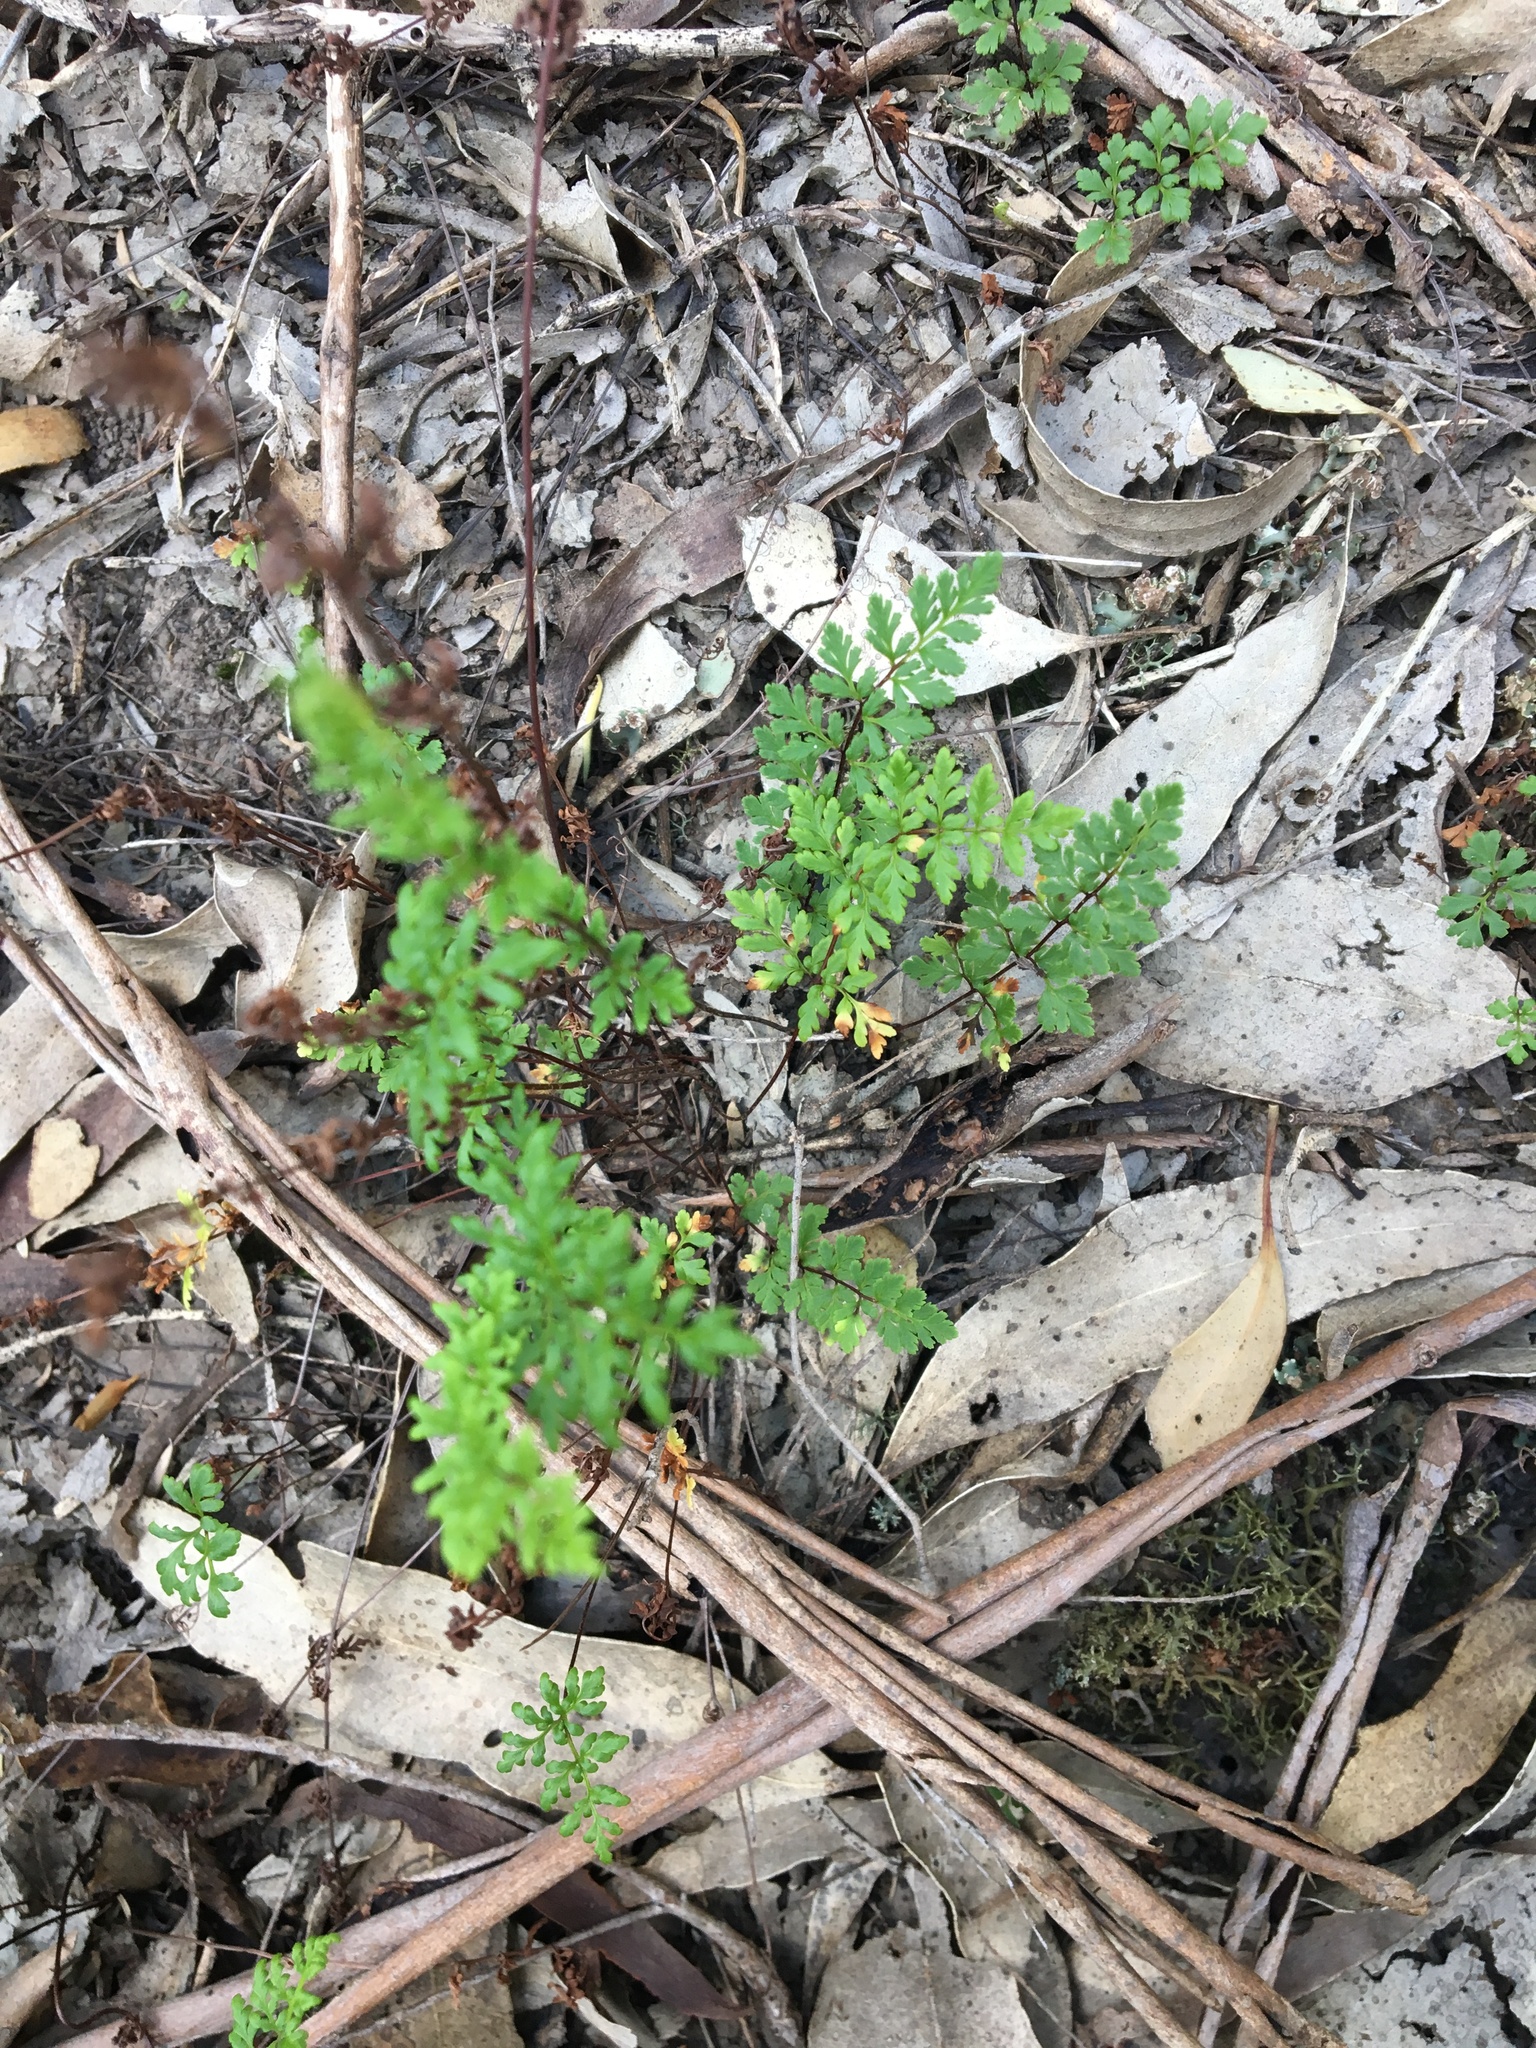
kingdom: Plantae
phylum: Tracheophyta
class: Polypodiopsida
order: Polypodiales
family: Pteridaceae
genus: Cheilanthes
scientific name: Cheilanthes sieberi
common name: Mulga fern
